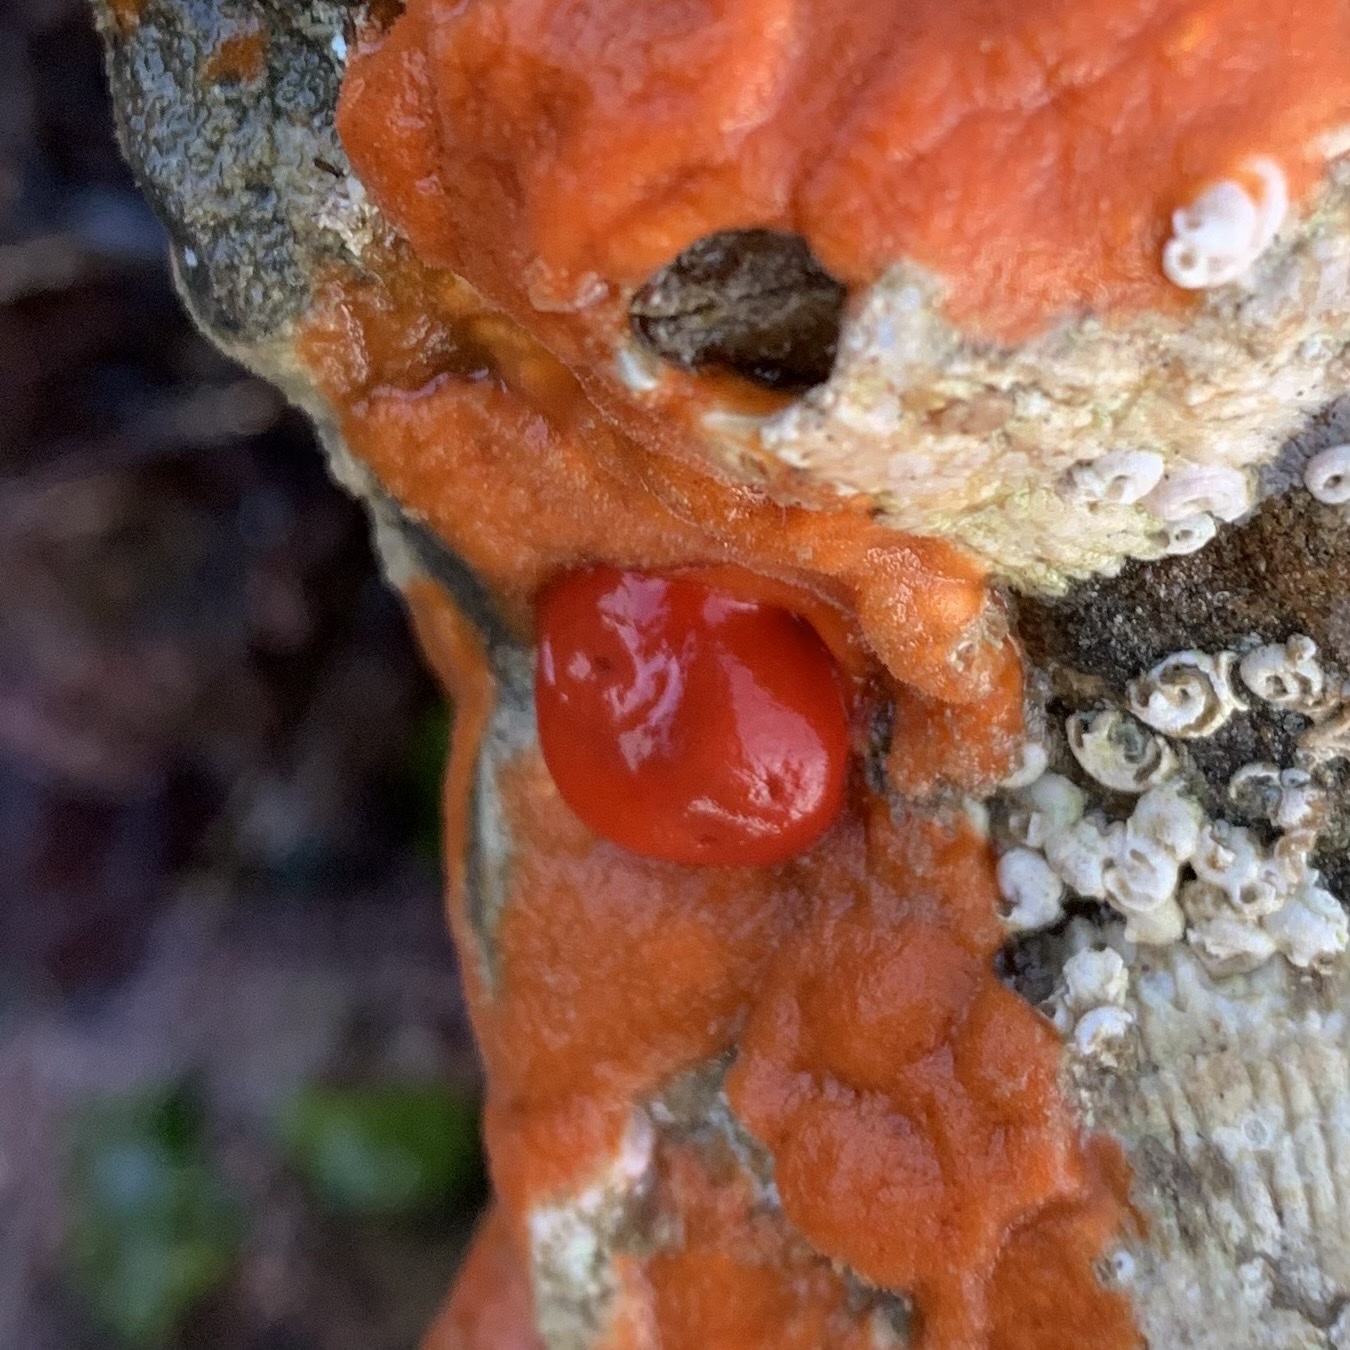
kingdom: Animalia
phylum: Mollusca
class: Gastropoda
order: Nudibranchia
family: Discodorididae
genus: Rostanga
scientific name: Rostanga pulchra
